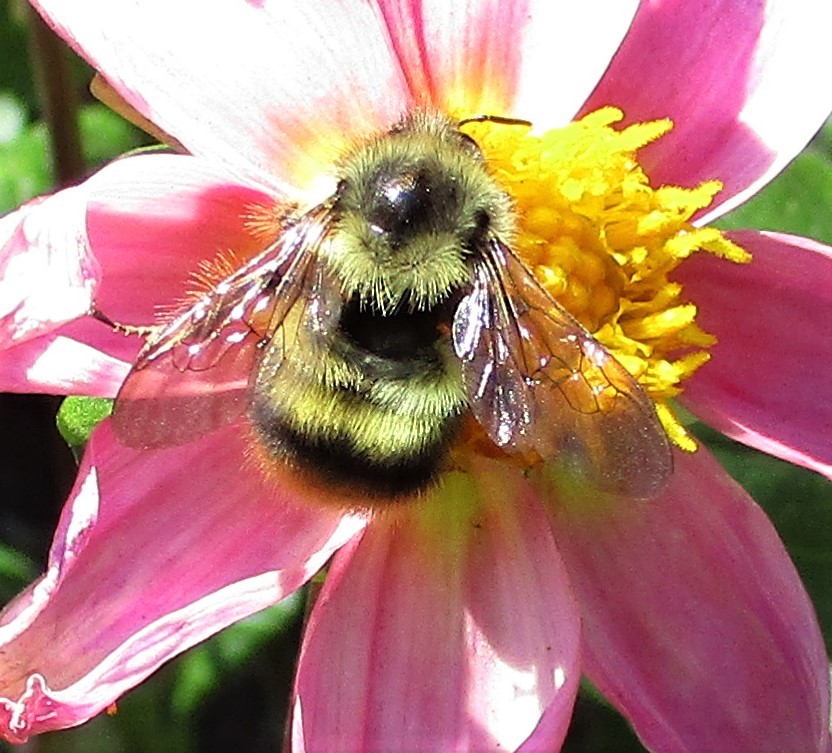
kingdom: Animalia
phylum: Arthropoda
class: Insecta
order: Hymenoptera
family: Apidae
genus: Bombus
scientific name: Bombus mixtus
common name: Fuzzy-horned bumble bee
